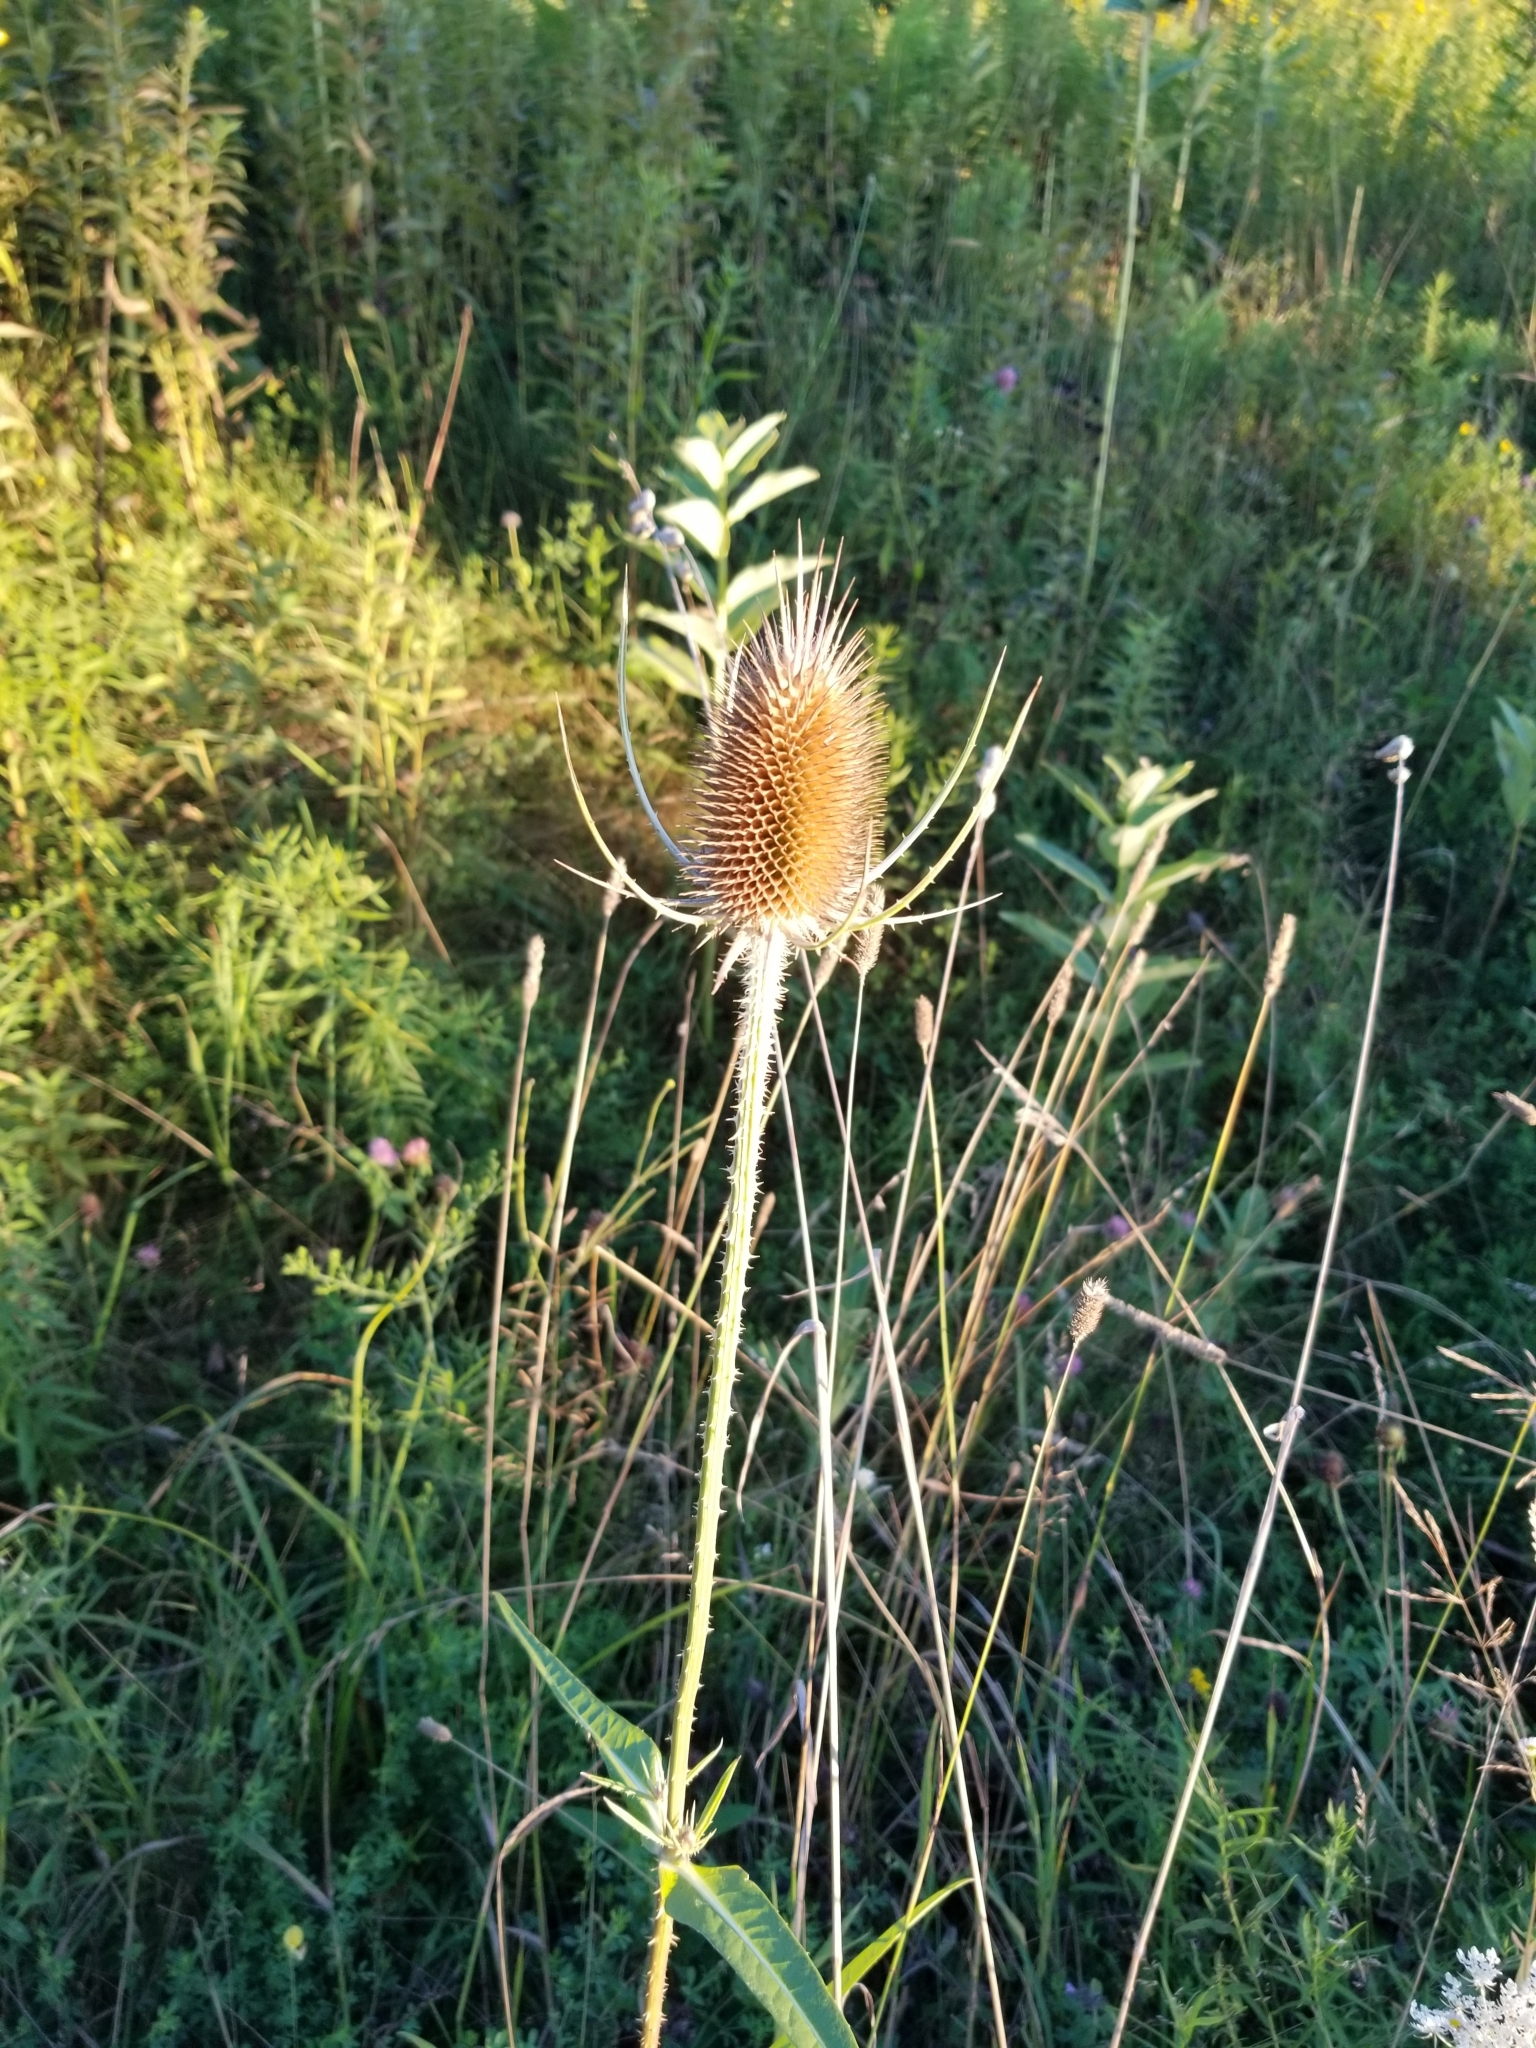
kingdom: Plantae
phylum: Tracheophyta
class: Magnoliopsida
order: Dipsacales
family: Caprifoliaceae
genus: Dipsacus
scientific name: Dipsacus fullonum
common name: Teasel
